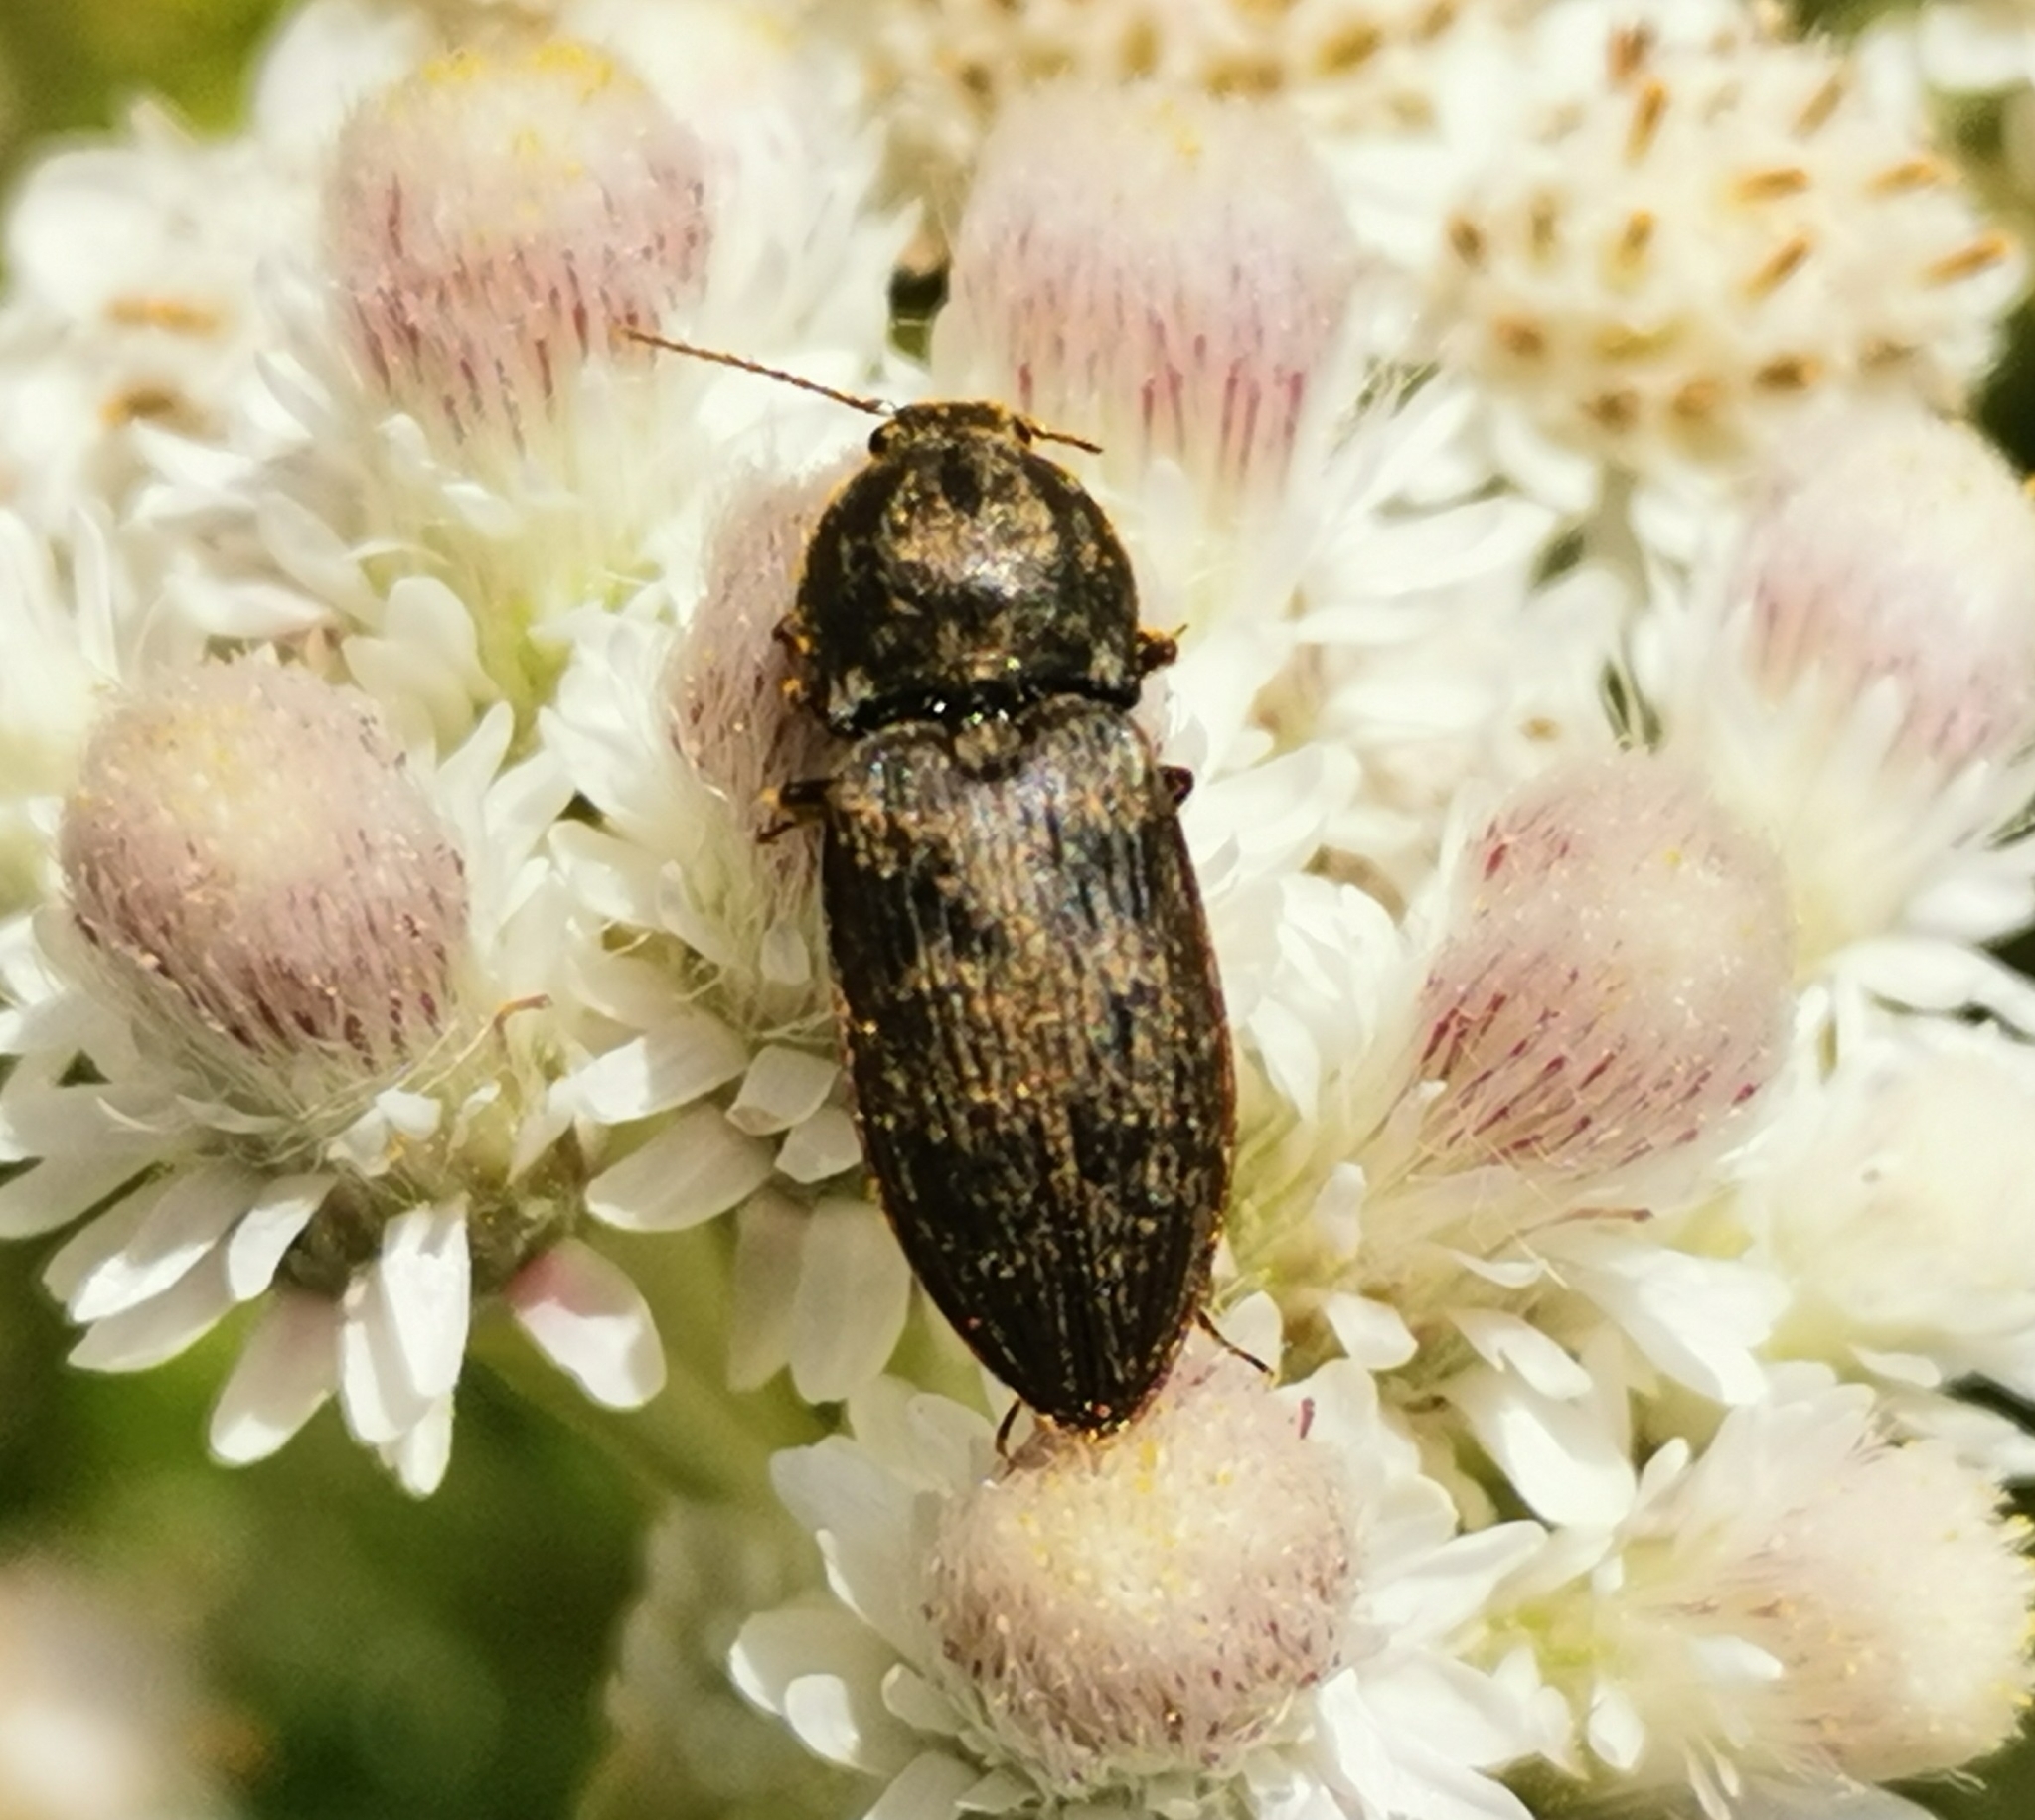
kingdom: Animalia
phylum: Arthropoda
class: Insecta
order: Coleoptera
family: Elateridae
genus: Prosternon
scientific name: Prosternon tessellatum
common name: Chequered click beetle
